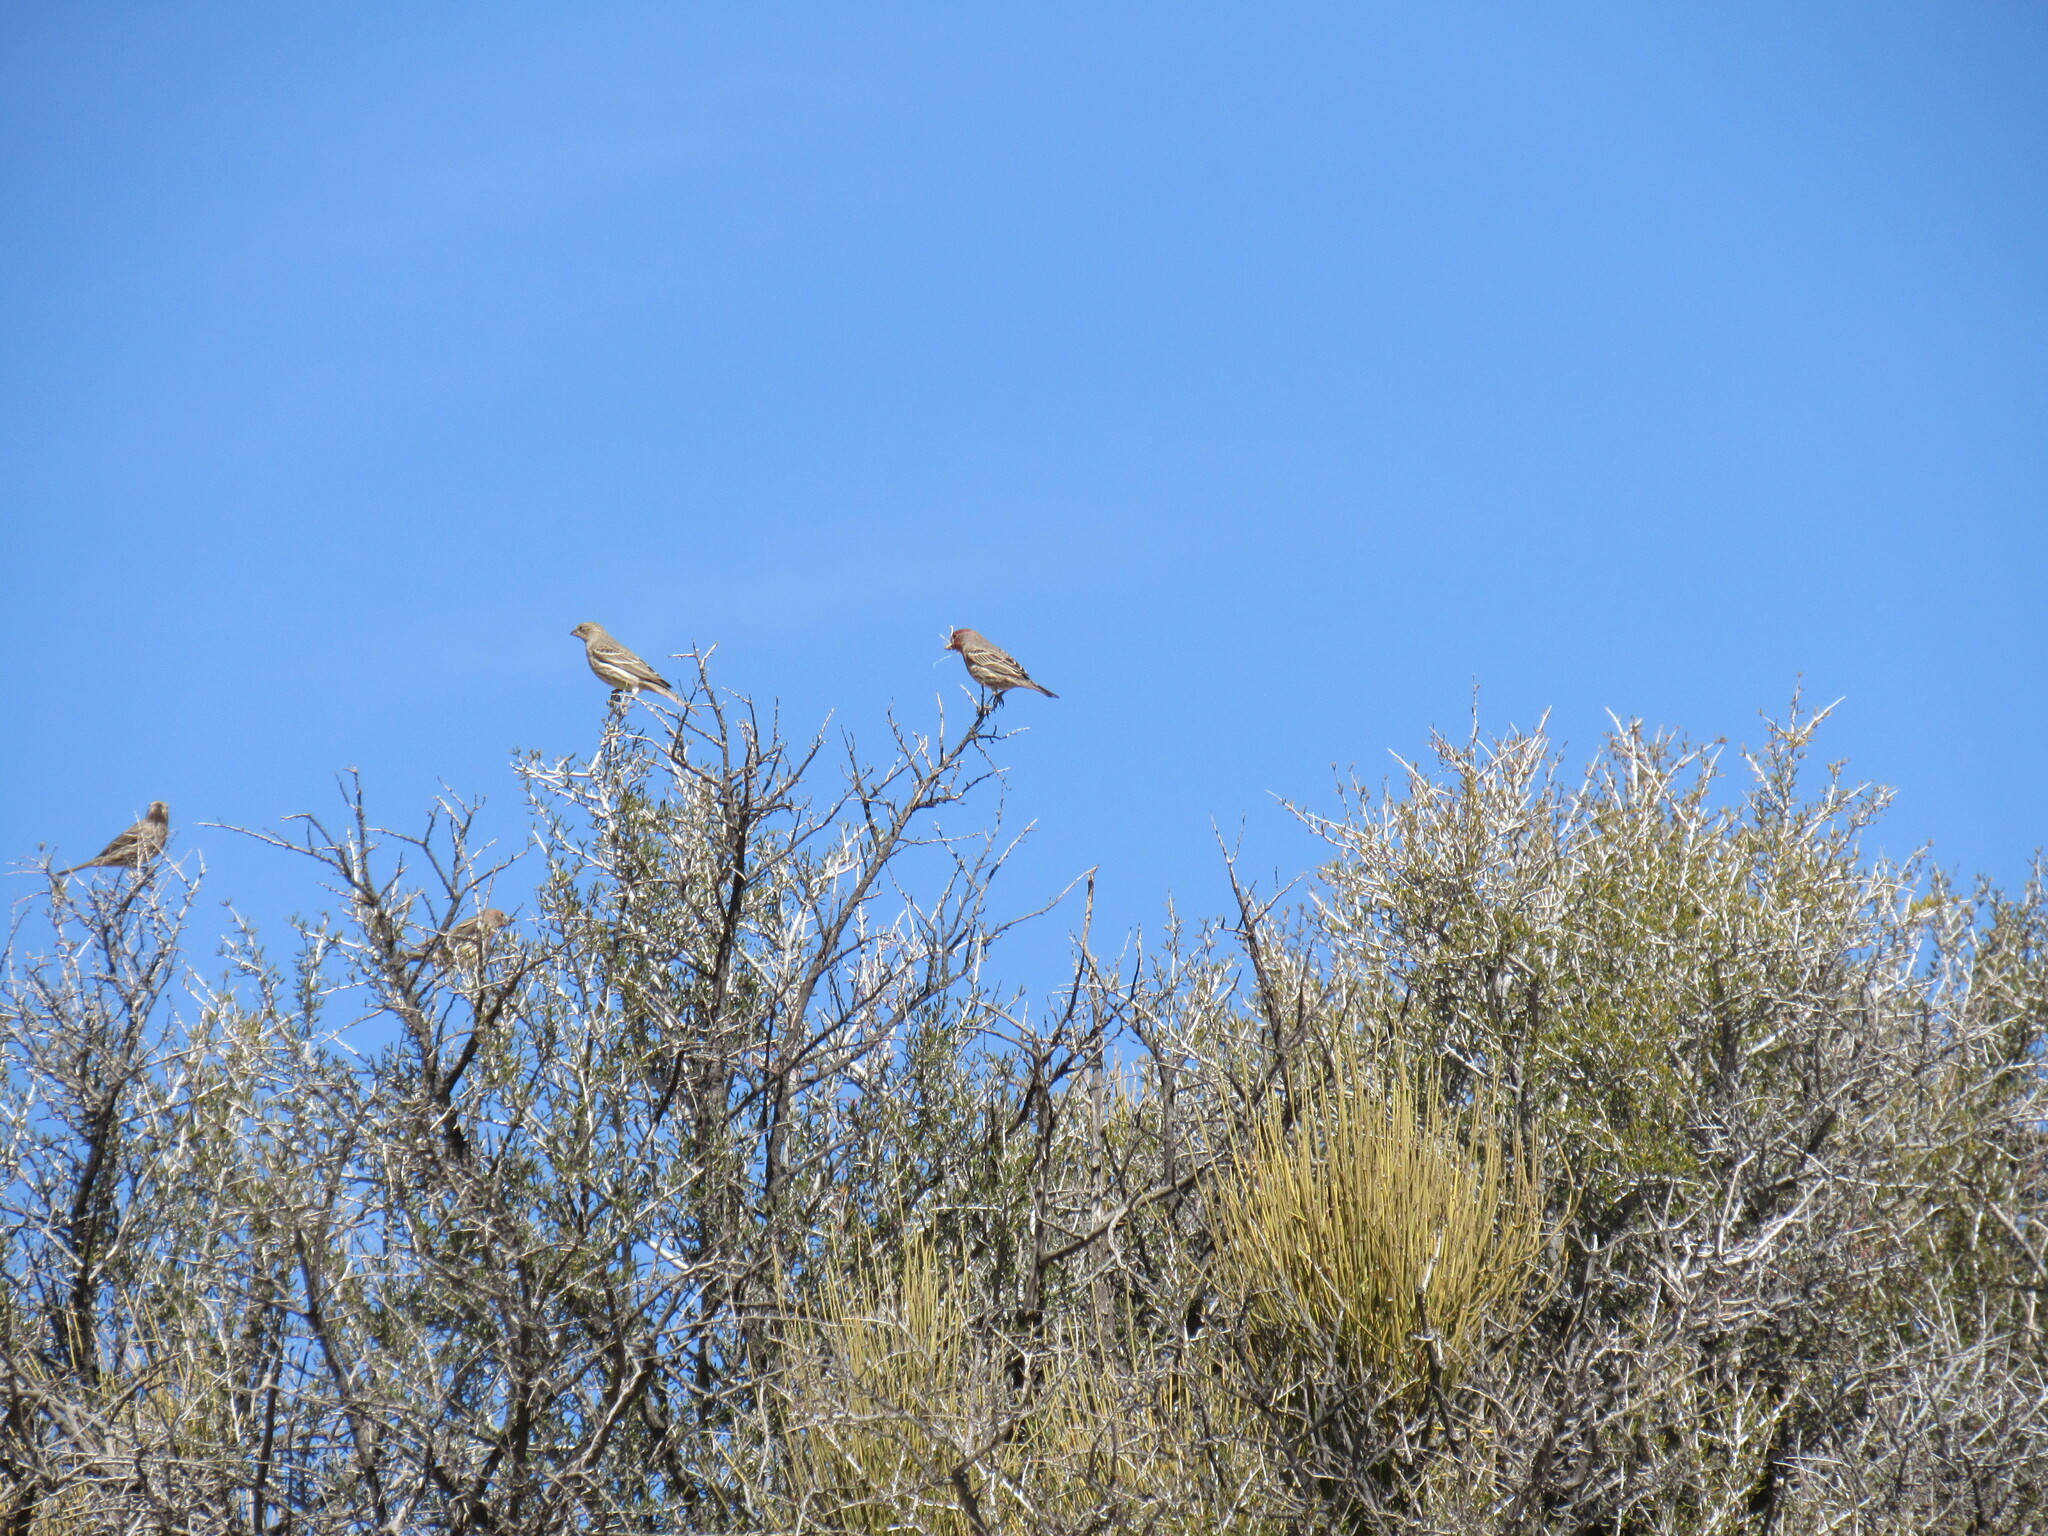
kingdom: Animalia
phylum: Chordata
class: Aves
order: Passeriformes
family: Fringillidae
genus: Haemorhous
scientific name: Haemorhous mexicanus
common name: House finch
